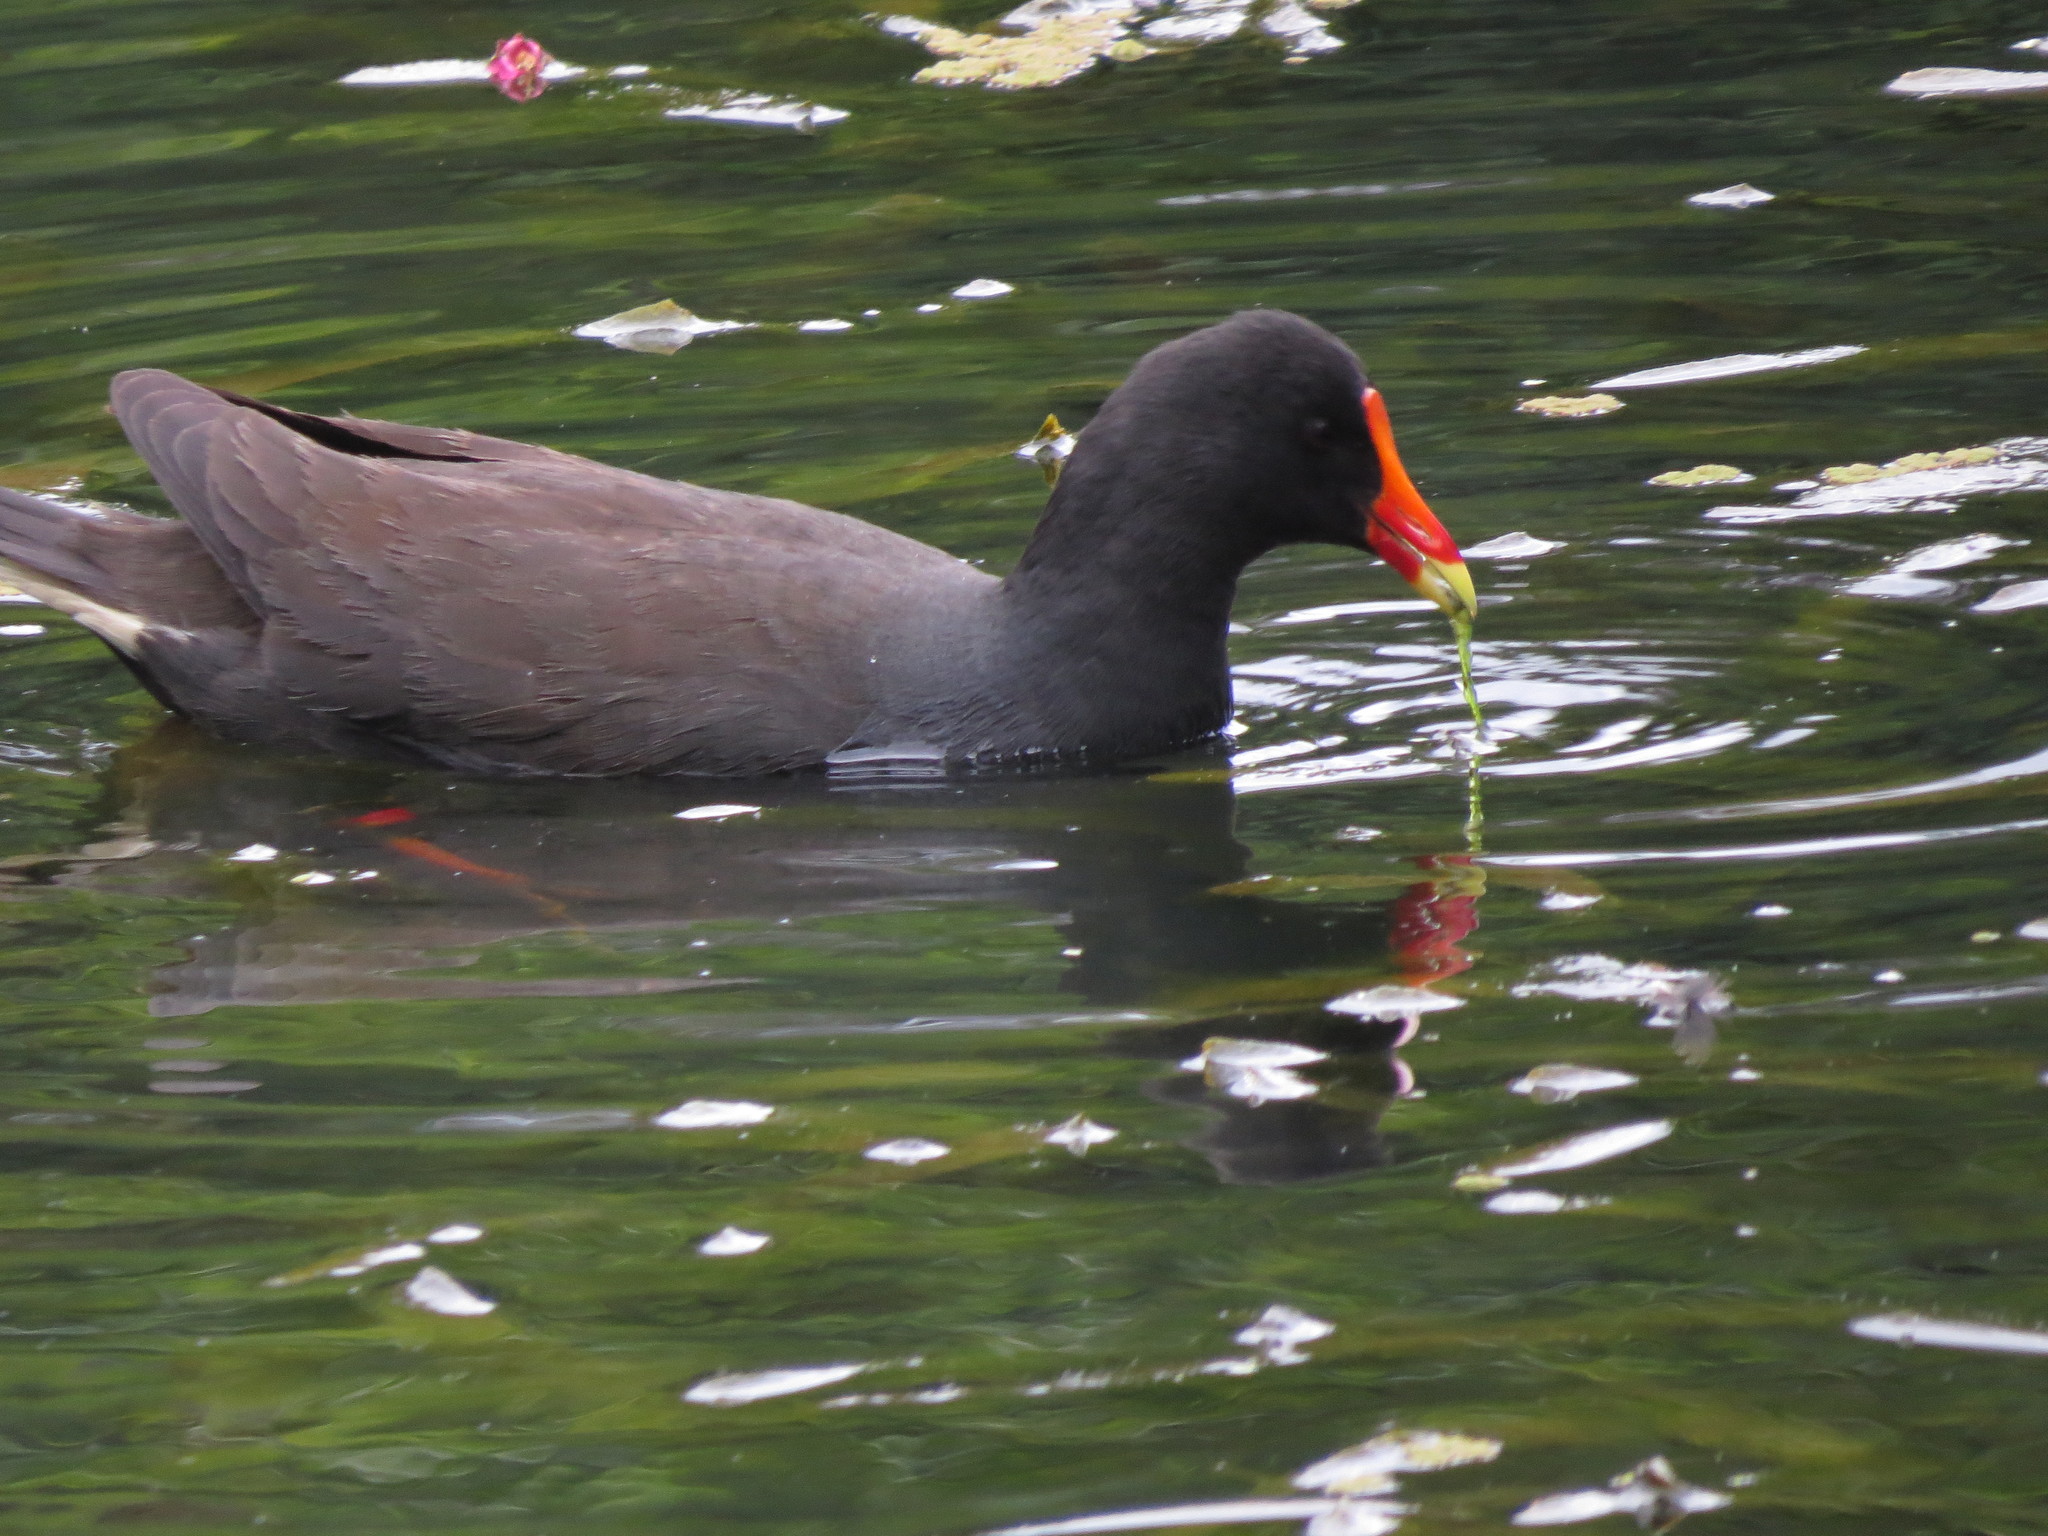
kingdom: Animalia
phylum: Chordata
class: Aves
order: Gruiformes
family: Rallidae
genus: Gallinula
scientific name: Gallinula tenebrosa
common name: Dusky moorhen
